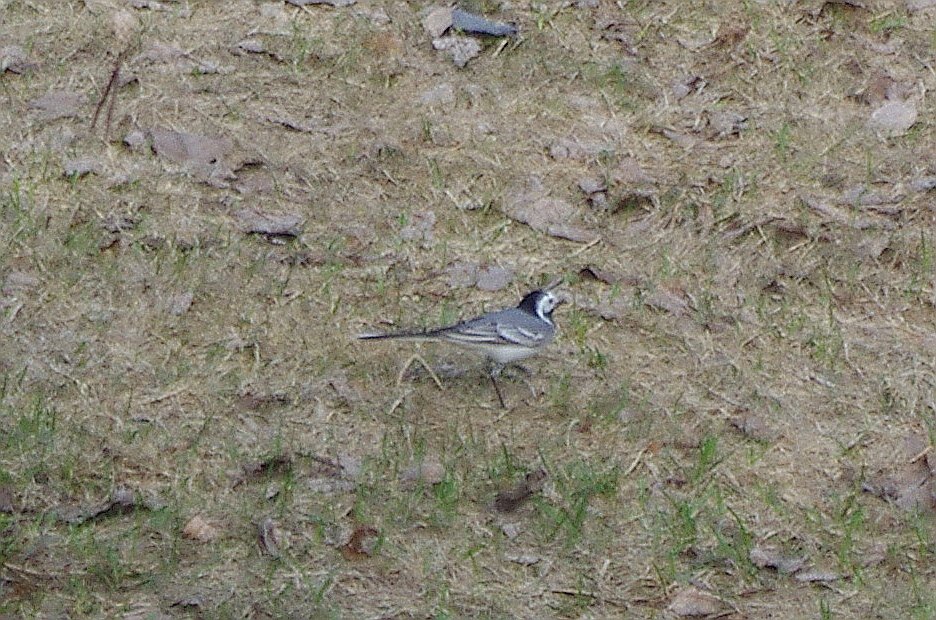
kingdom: Animalia
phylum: Chordata
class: Aves
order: Passeriformes
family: Motacillidae
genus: Motacilla
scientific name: Motacilla alba
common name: White wagtail
